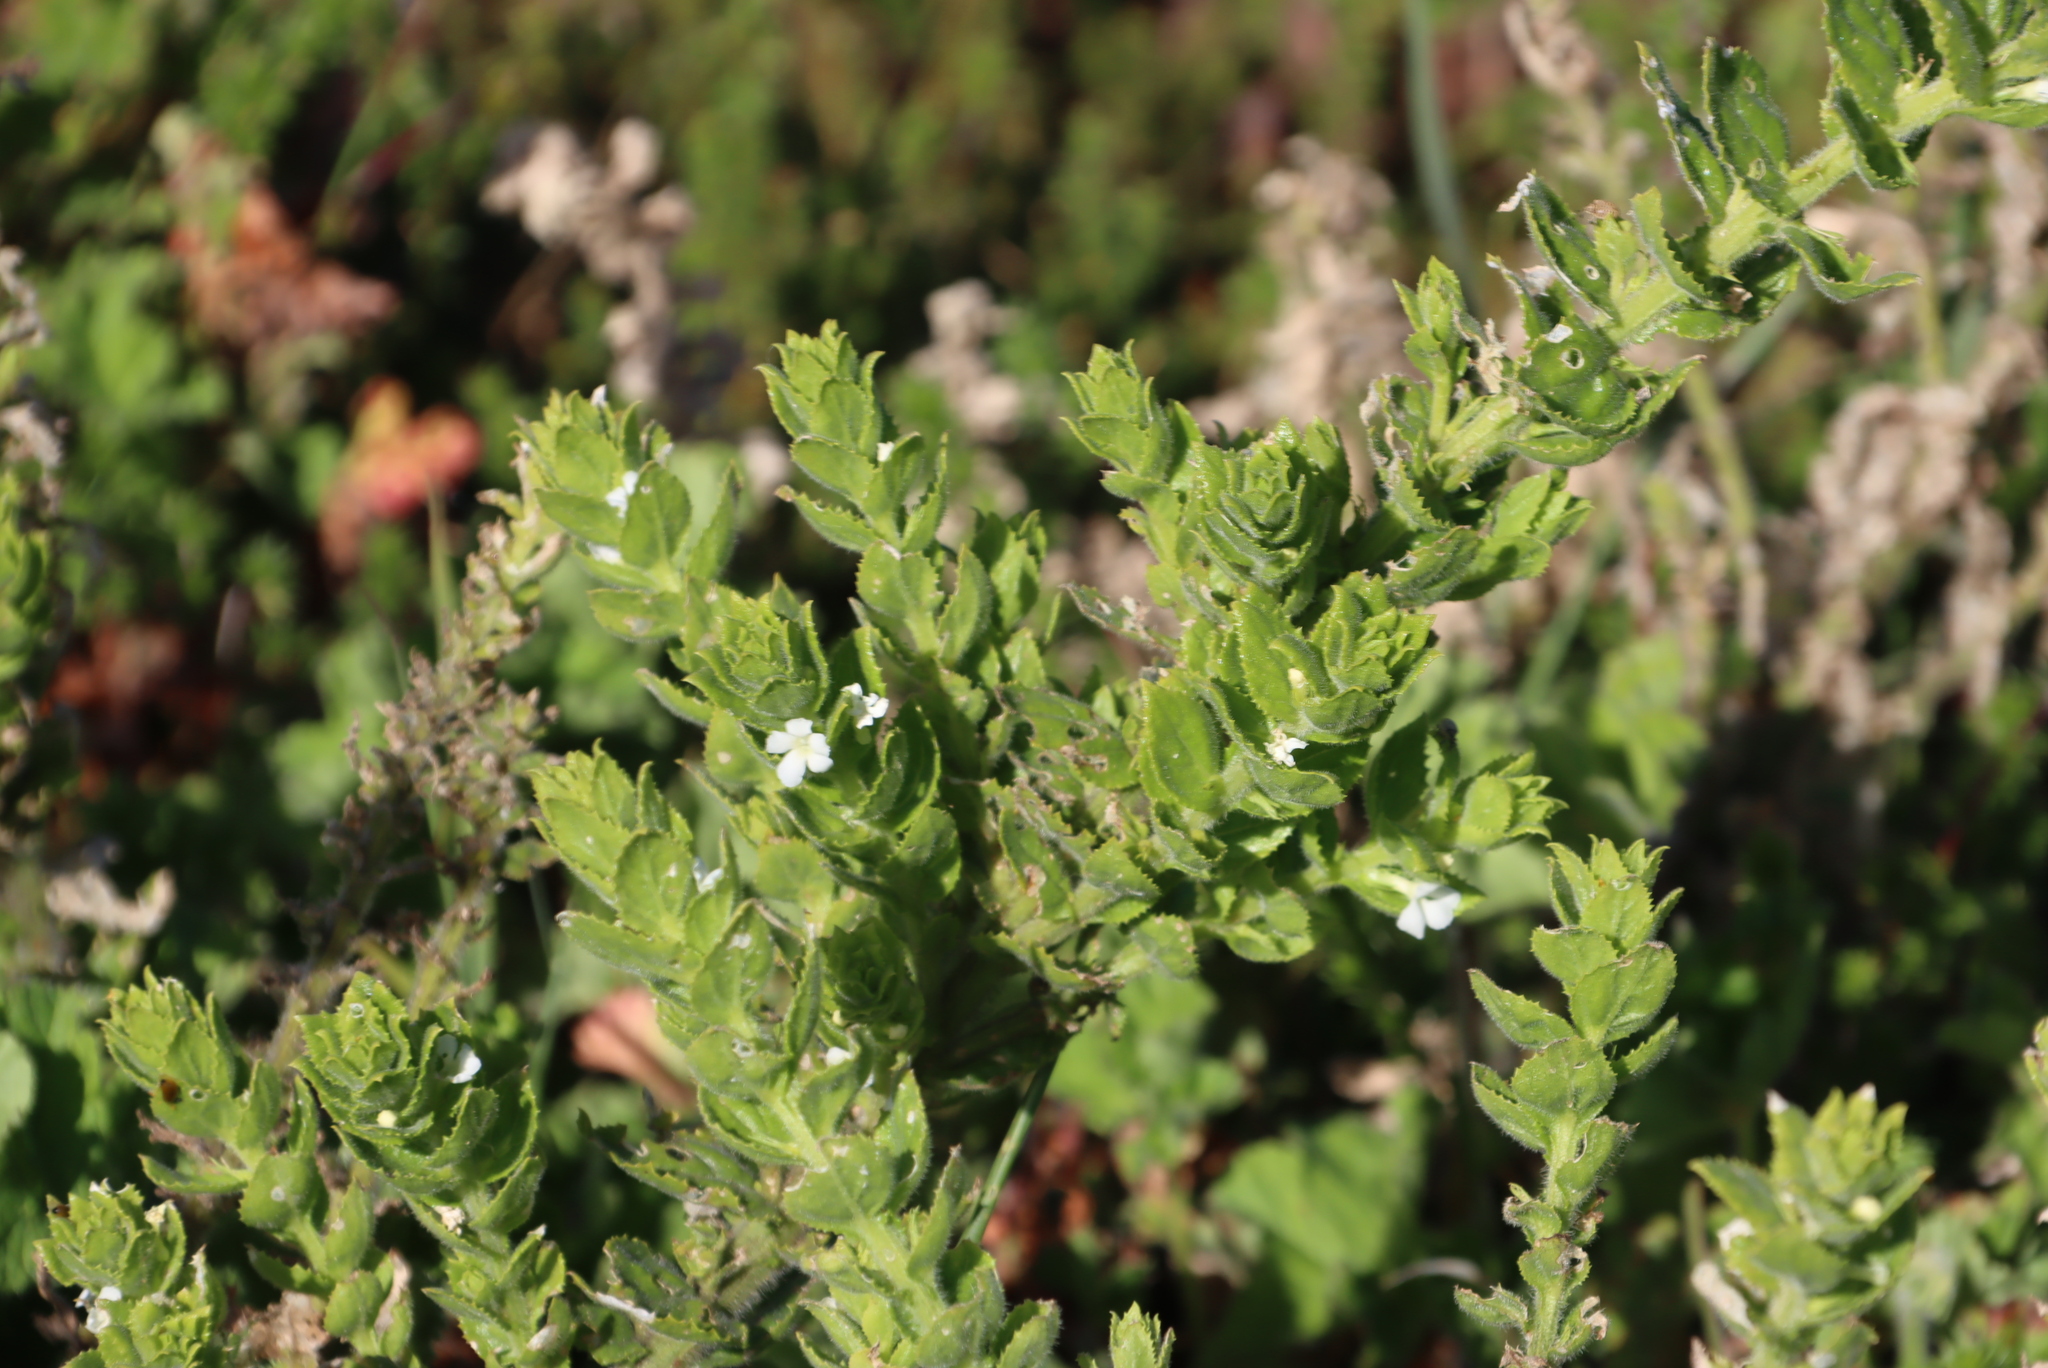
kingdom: Plantae
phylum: Tracheophyta
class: Magnoliopsida
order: Lamiales
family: Scrophulariaceae
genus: Oftia
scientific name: Oftia africana
